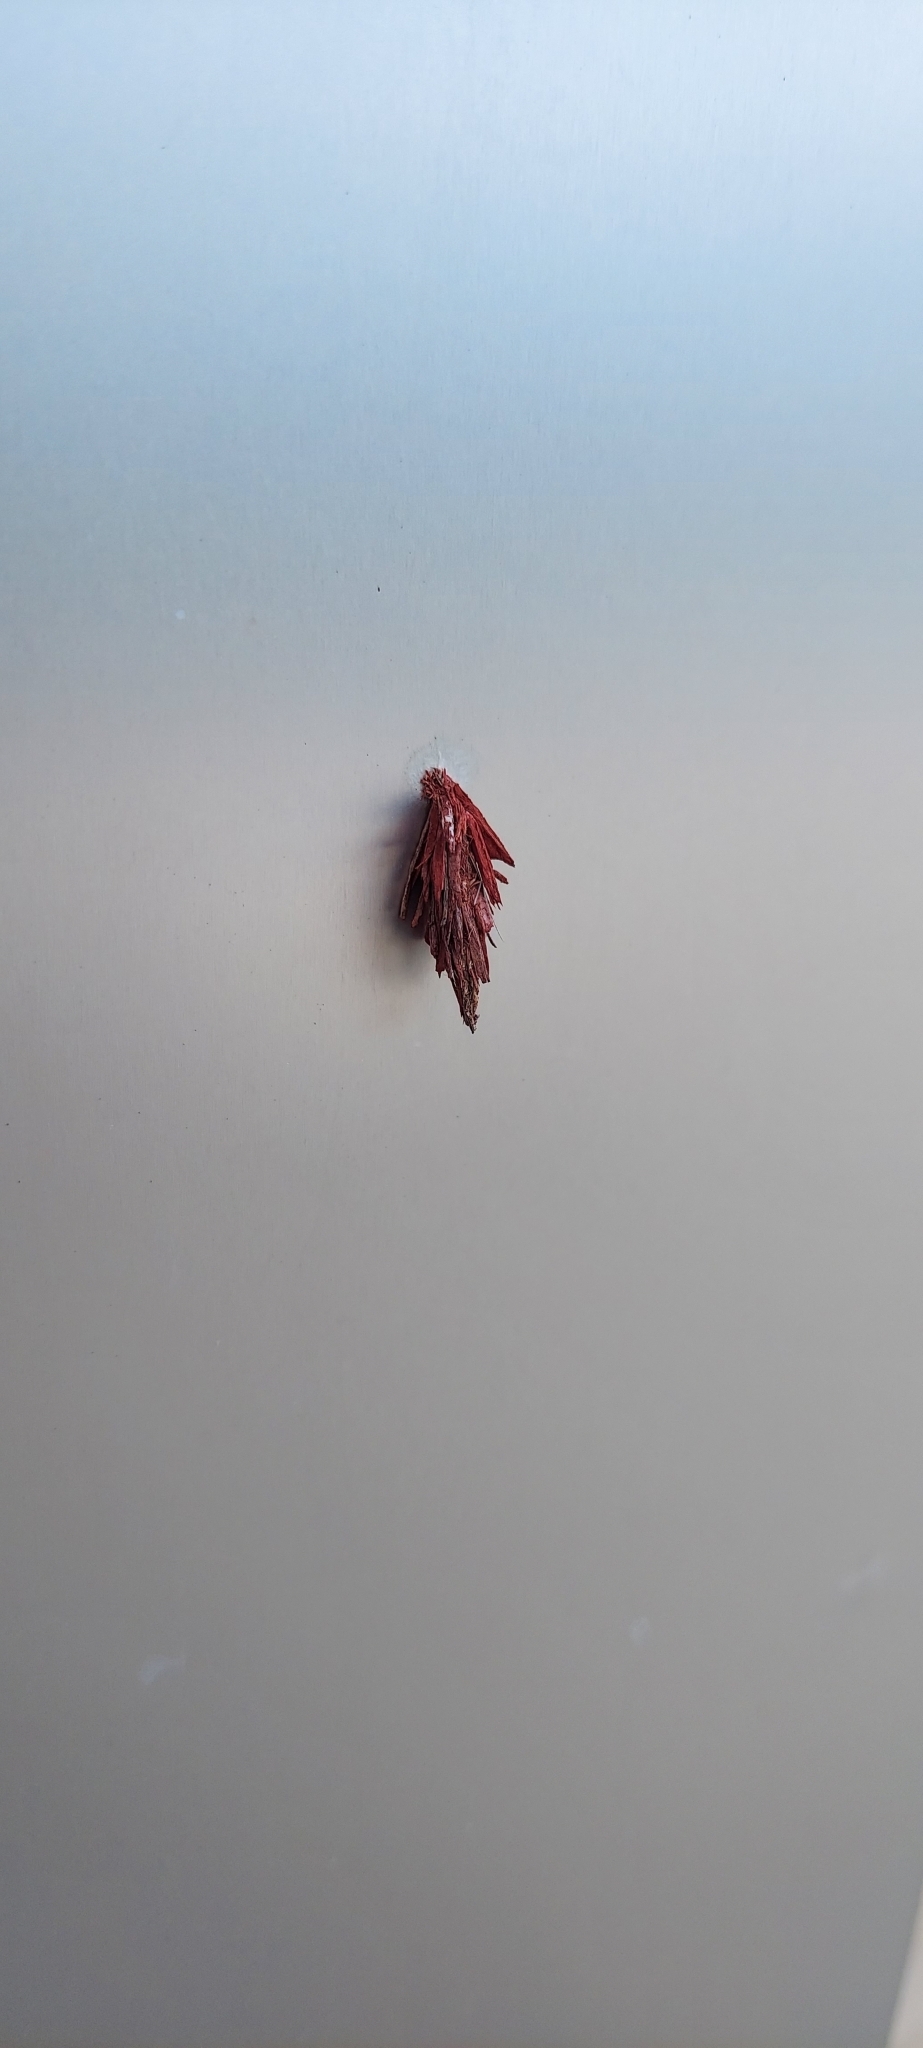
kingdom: Animalia
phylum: Arthropoda
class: Insecta
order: Lepidoptera
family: Psychidae
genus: Thyridopteryx
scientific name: Thyridopteryx ephemeraeformis
